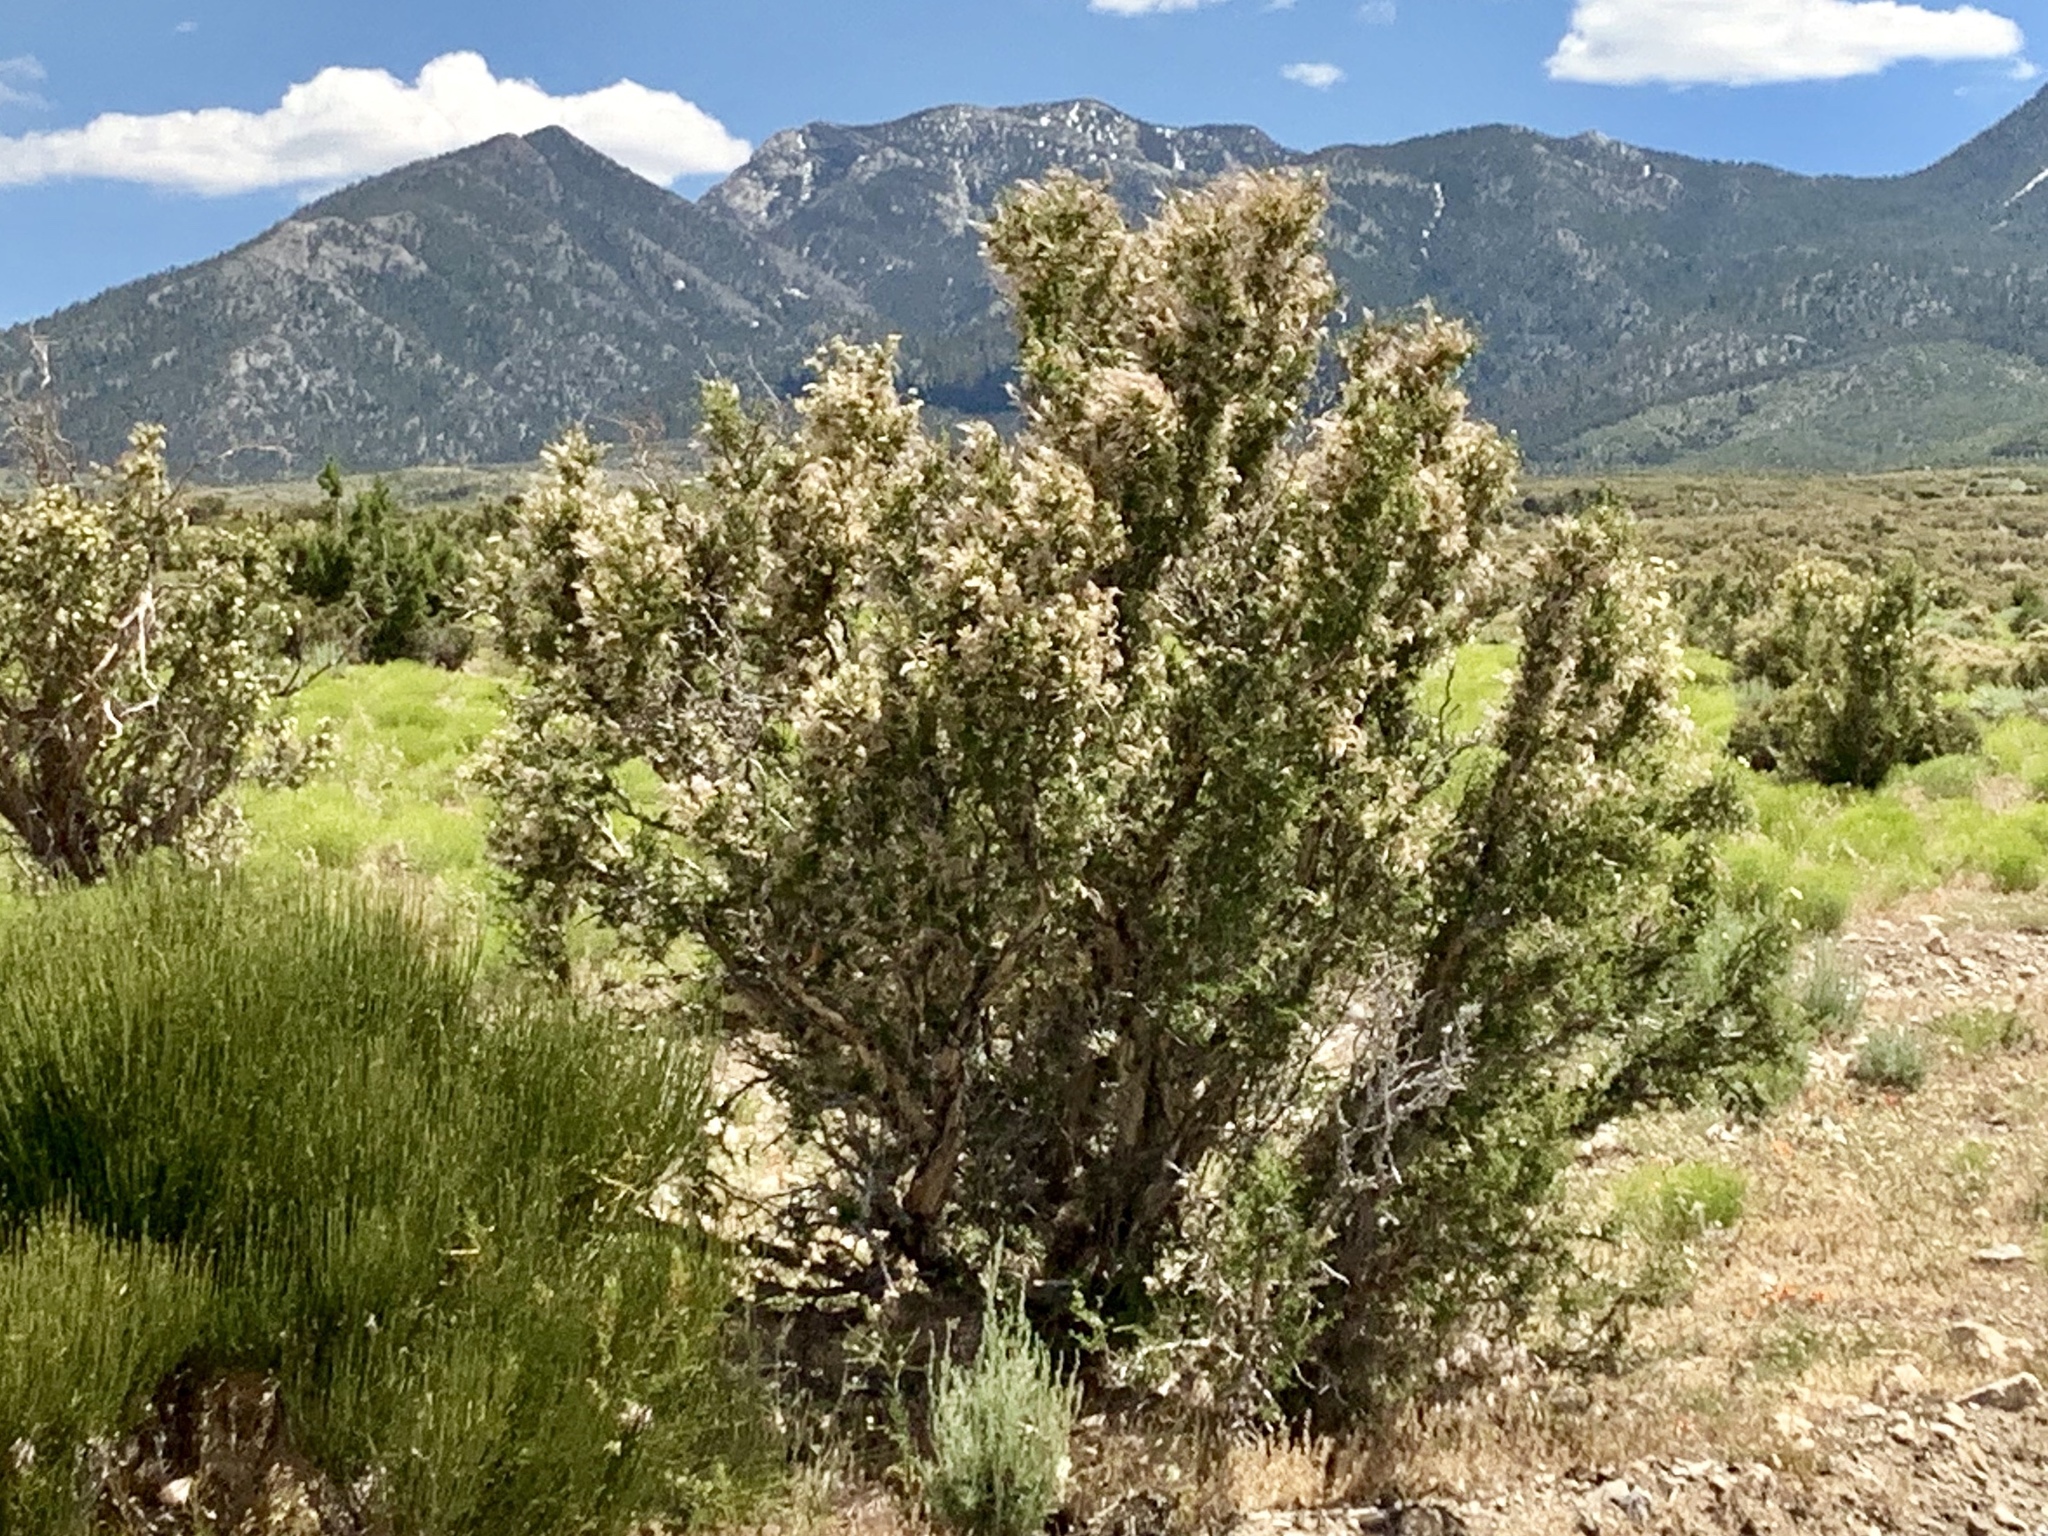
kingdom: Plantae
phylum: Tracheophyta
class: Magnoliopsida
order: Rosales
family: Rosaceae
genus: Purshia
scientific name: Purshia stansburiana
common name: Stansbury's cliffrose
